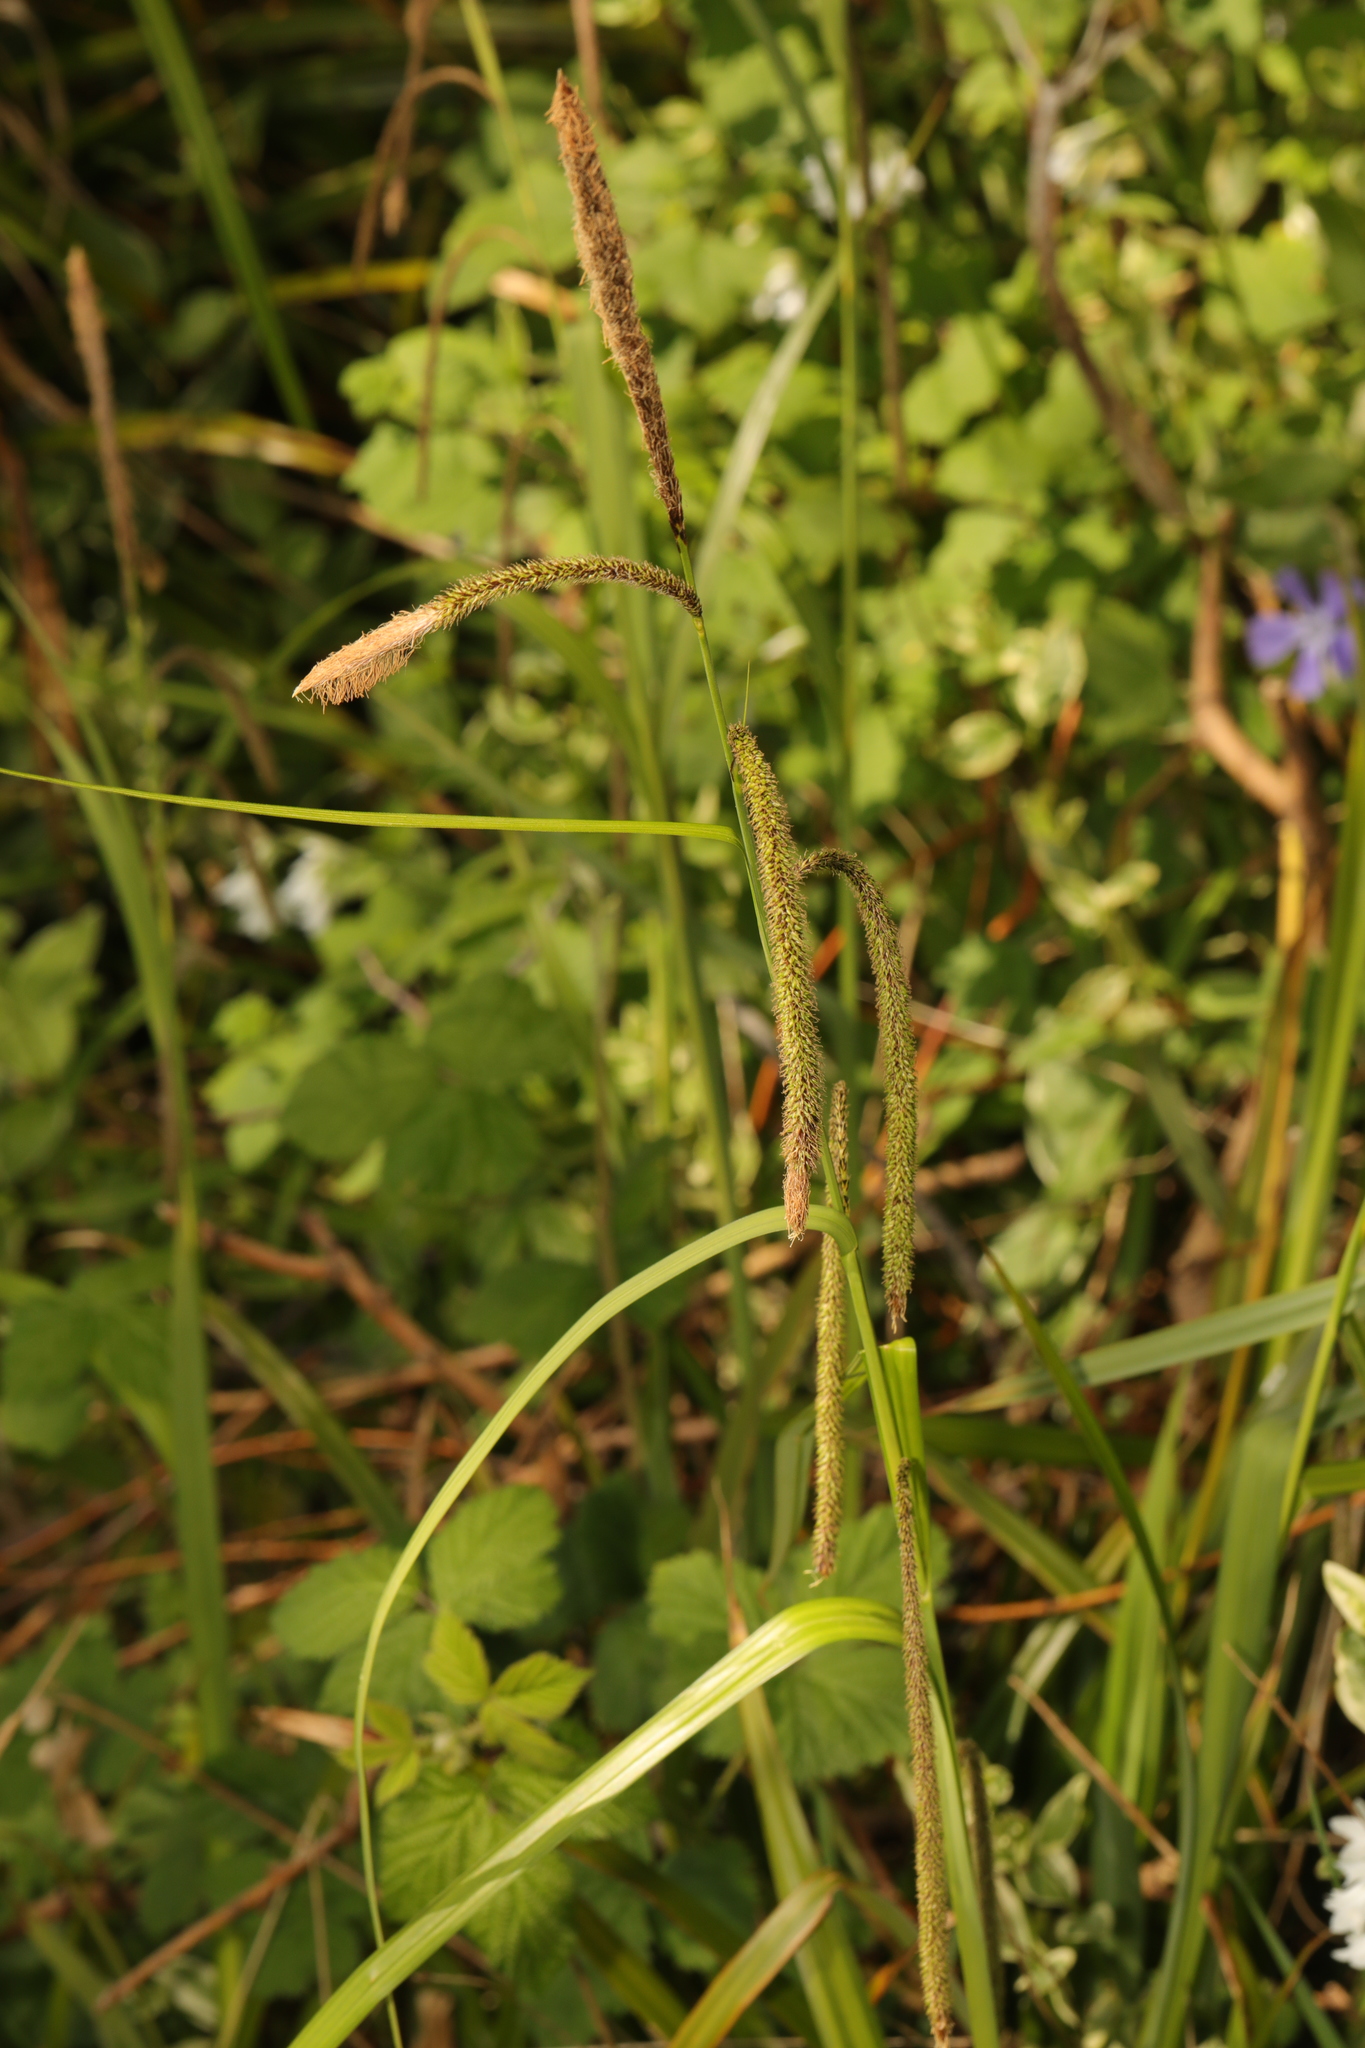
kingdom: Plantae
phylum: Tracheophyta
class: Liliopsida
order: Poales
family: Cyperaceae
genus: Carex
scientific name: Carex pendula
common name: Pendulous sedge
